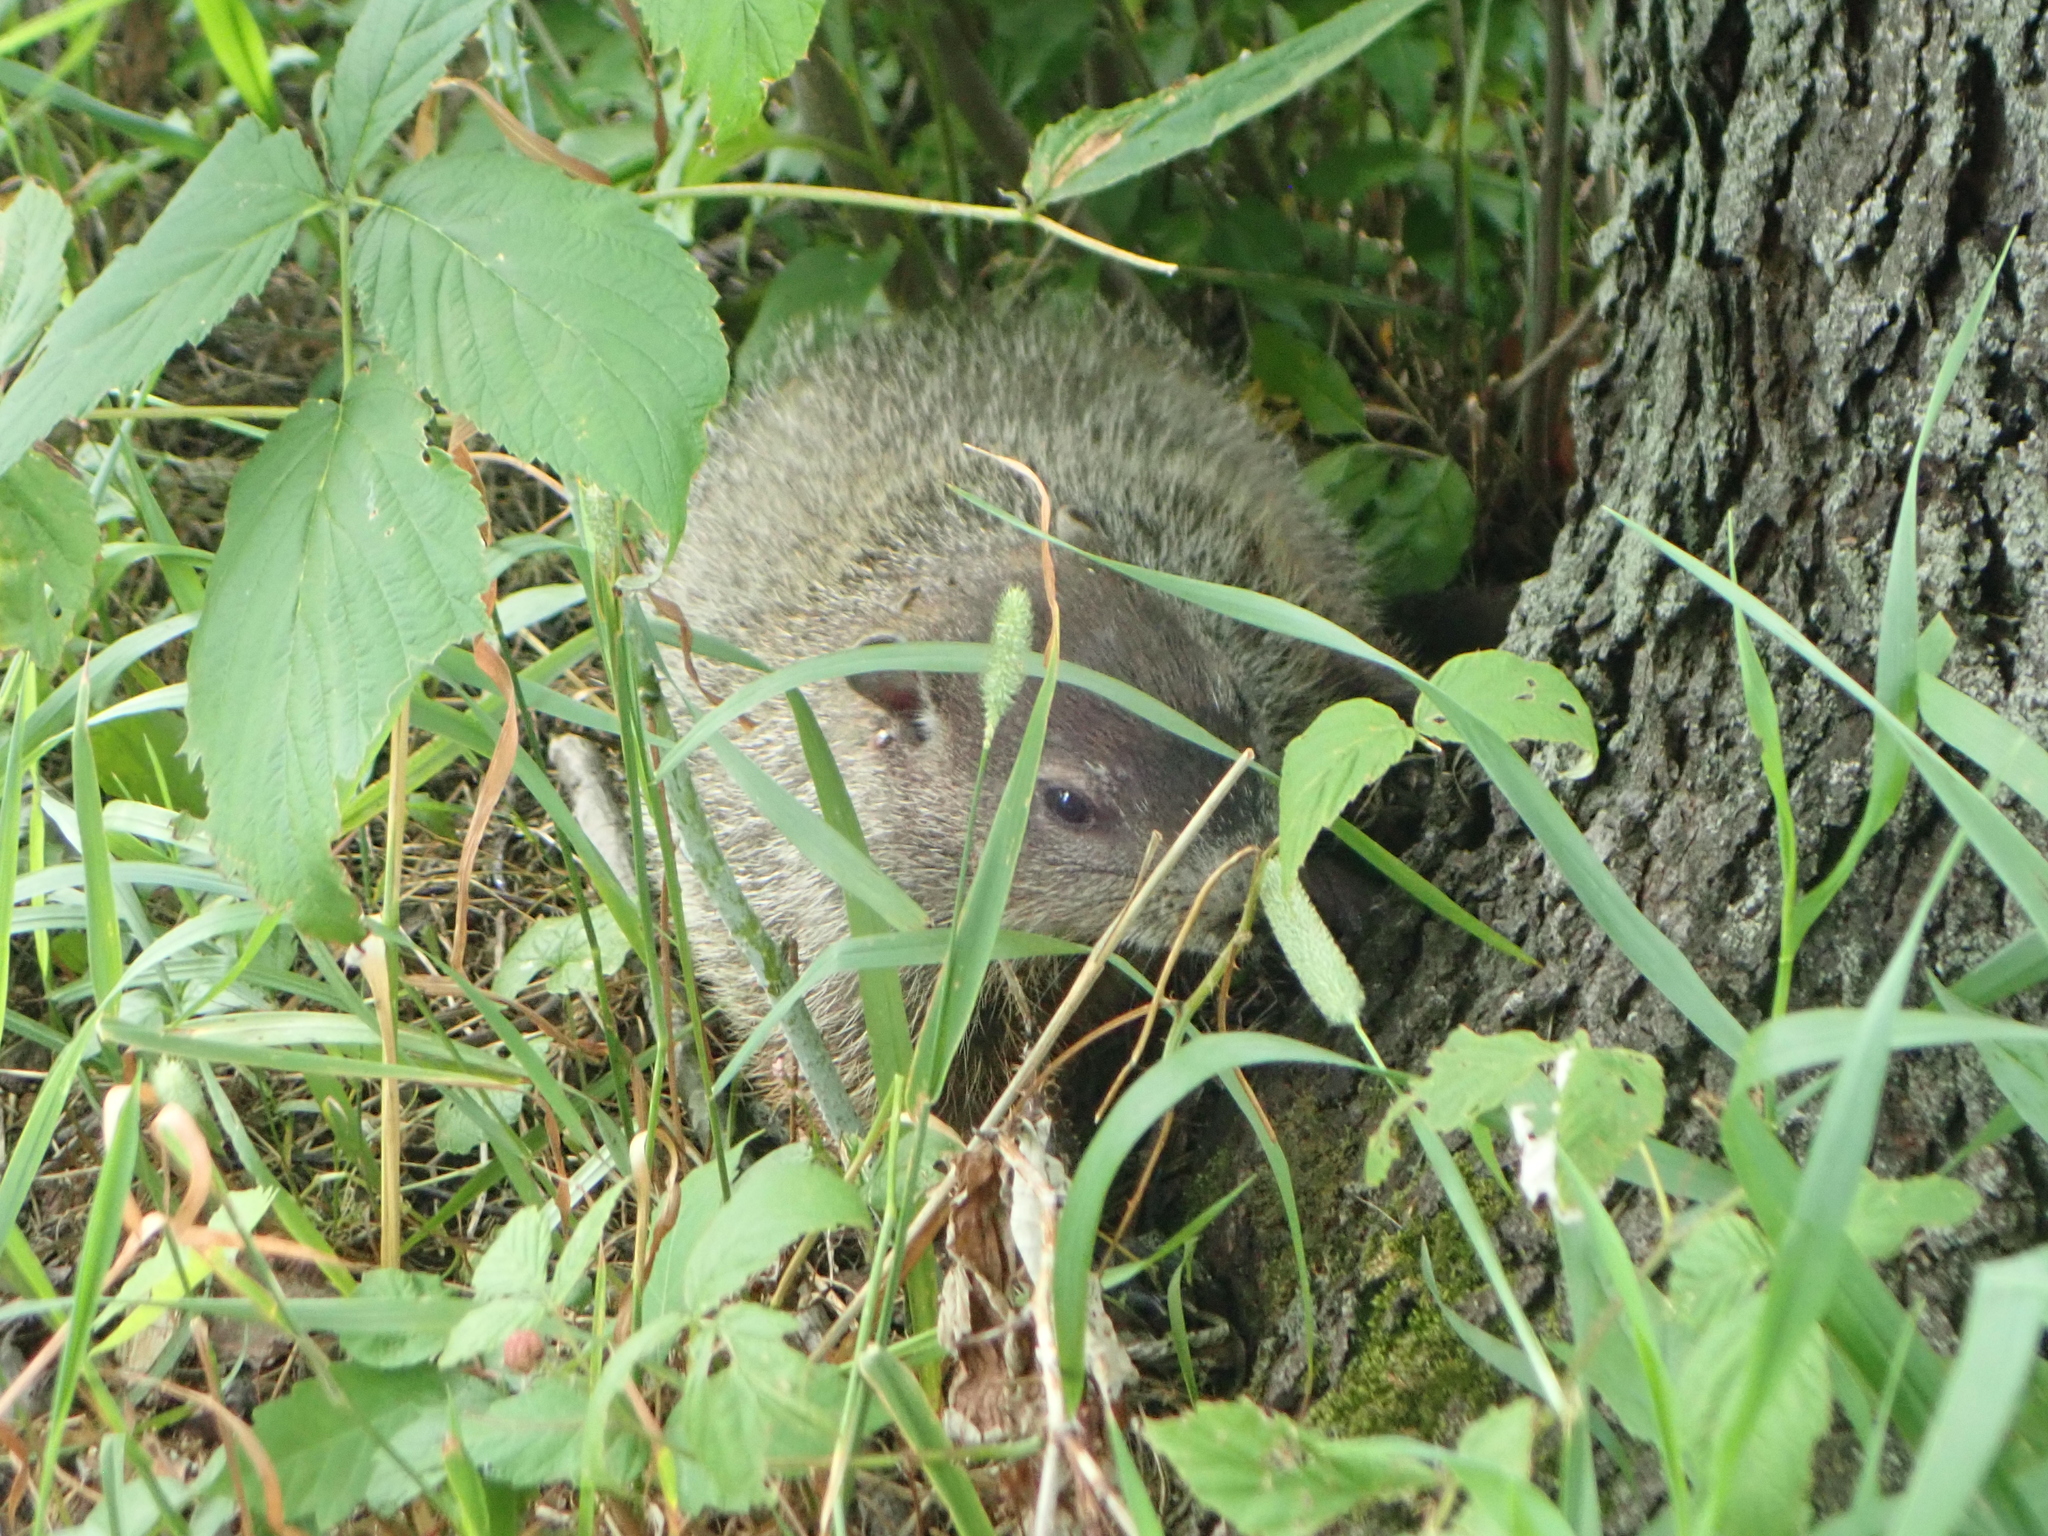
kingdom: Animalia
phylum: Chordata
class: Mammalia
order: Rodentia
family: Sciuridae
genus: Marmota
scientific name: Marmota monax
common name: Groundhog
